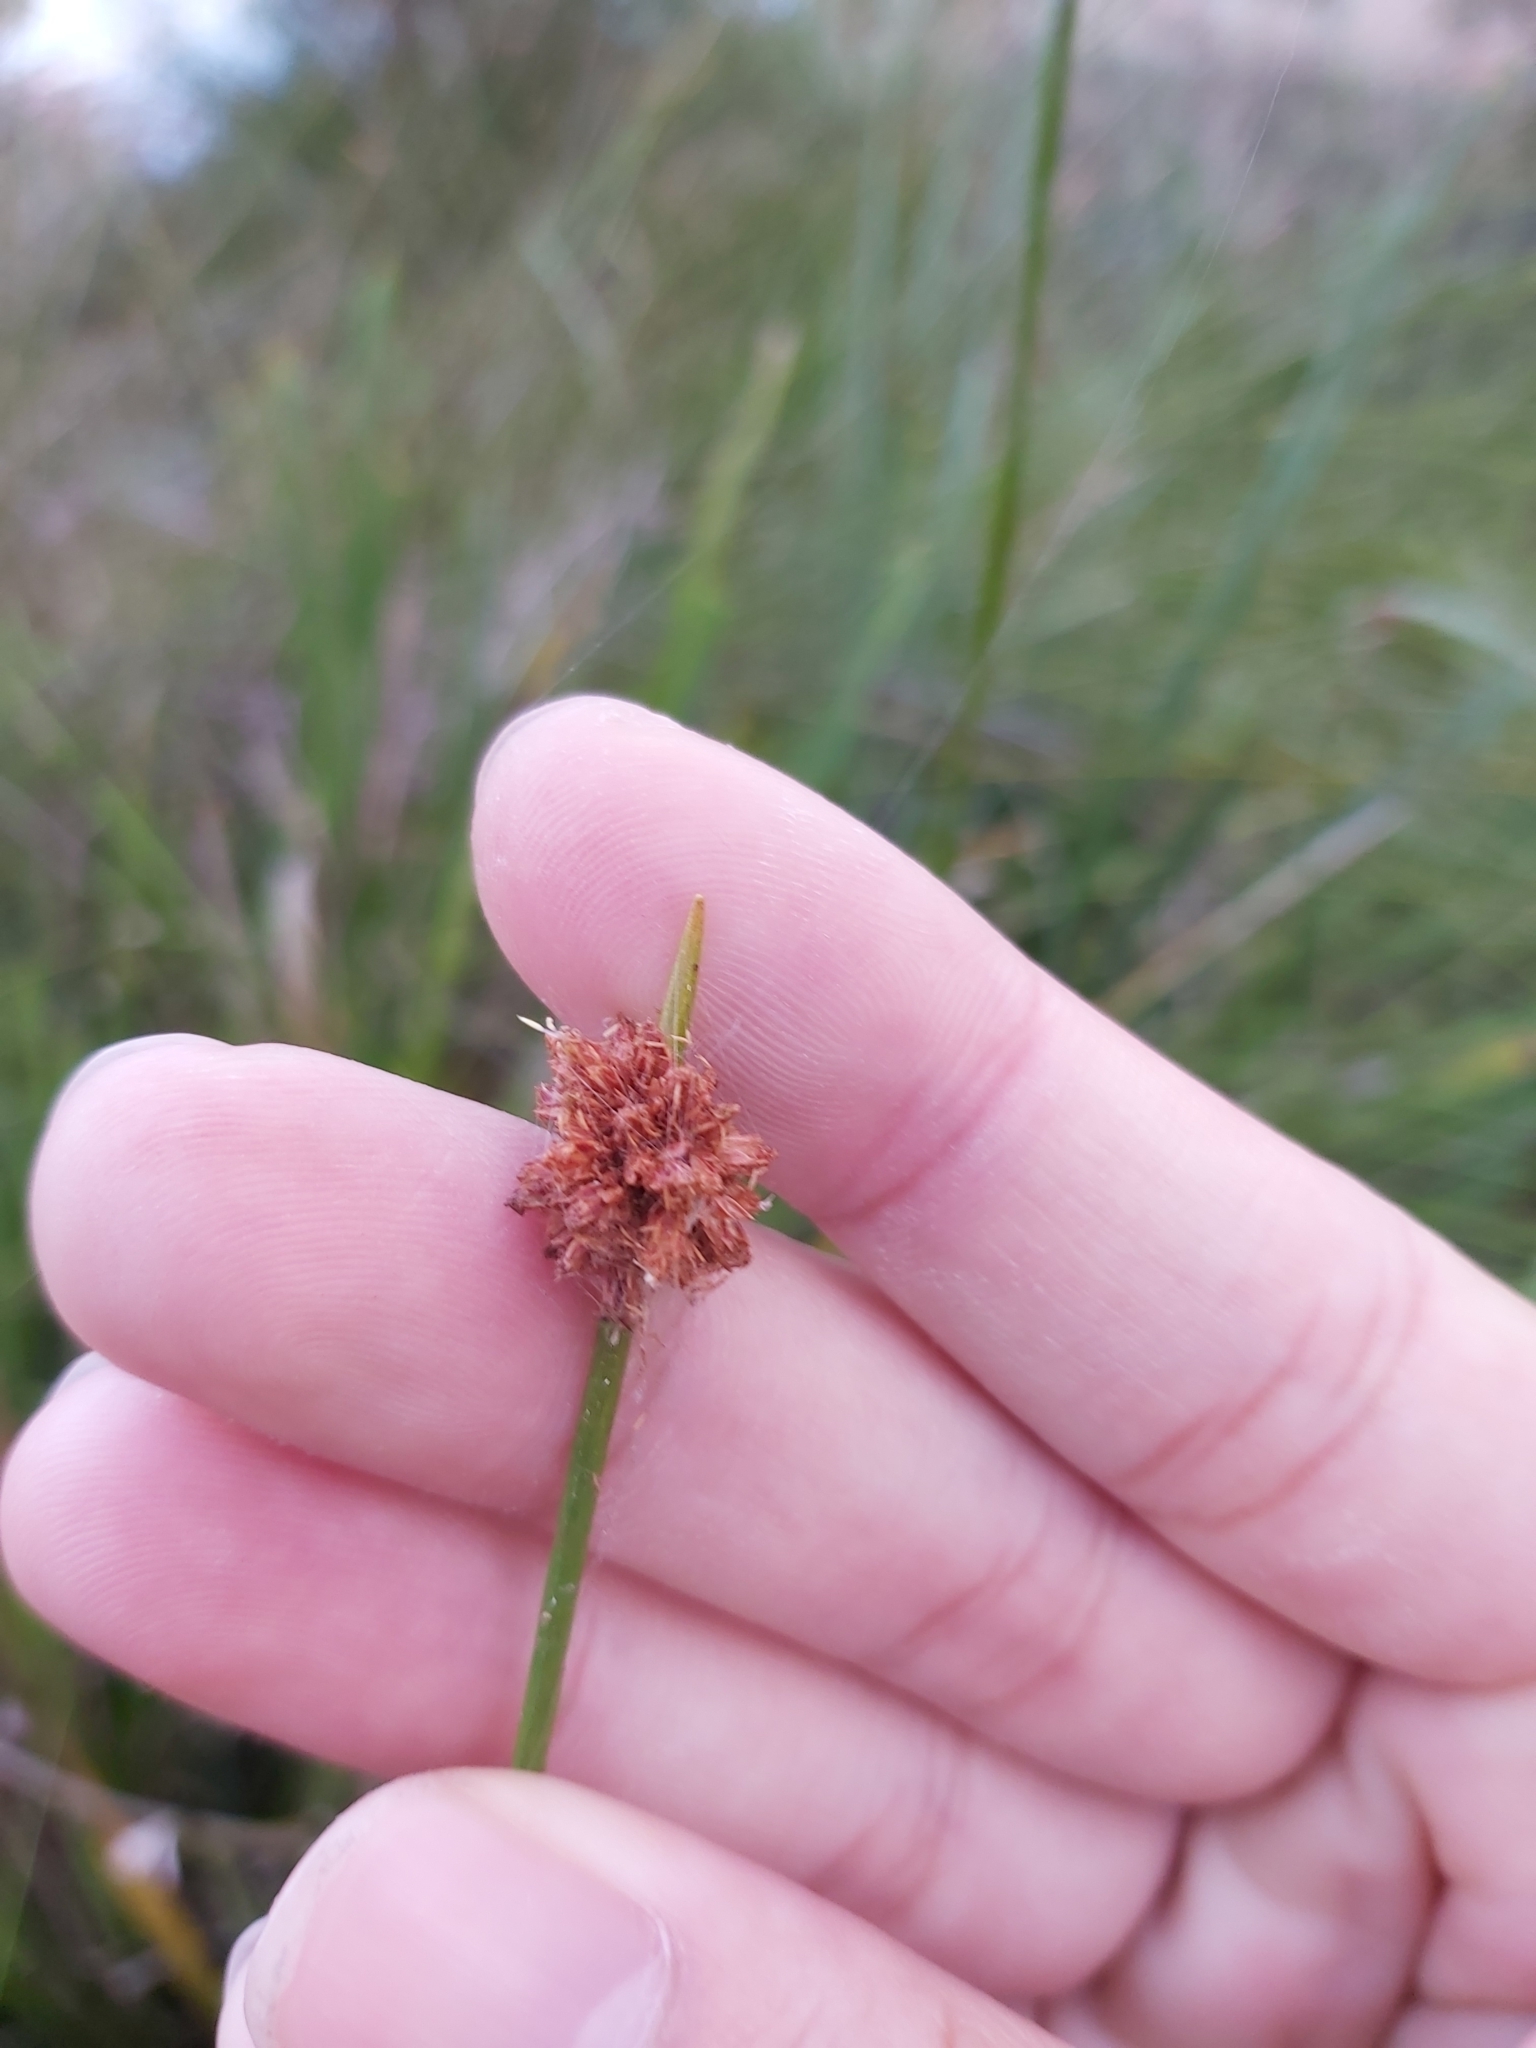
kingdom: Plantae
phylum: Tracheophyta
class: Liliopsida
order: Poales
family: Cyperaceae
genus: Ficinia
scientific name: Ficinia nodosa
